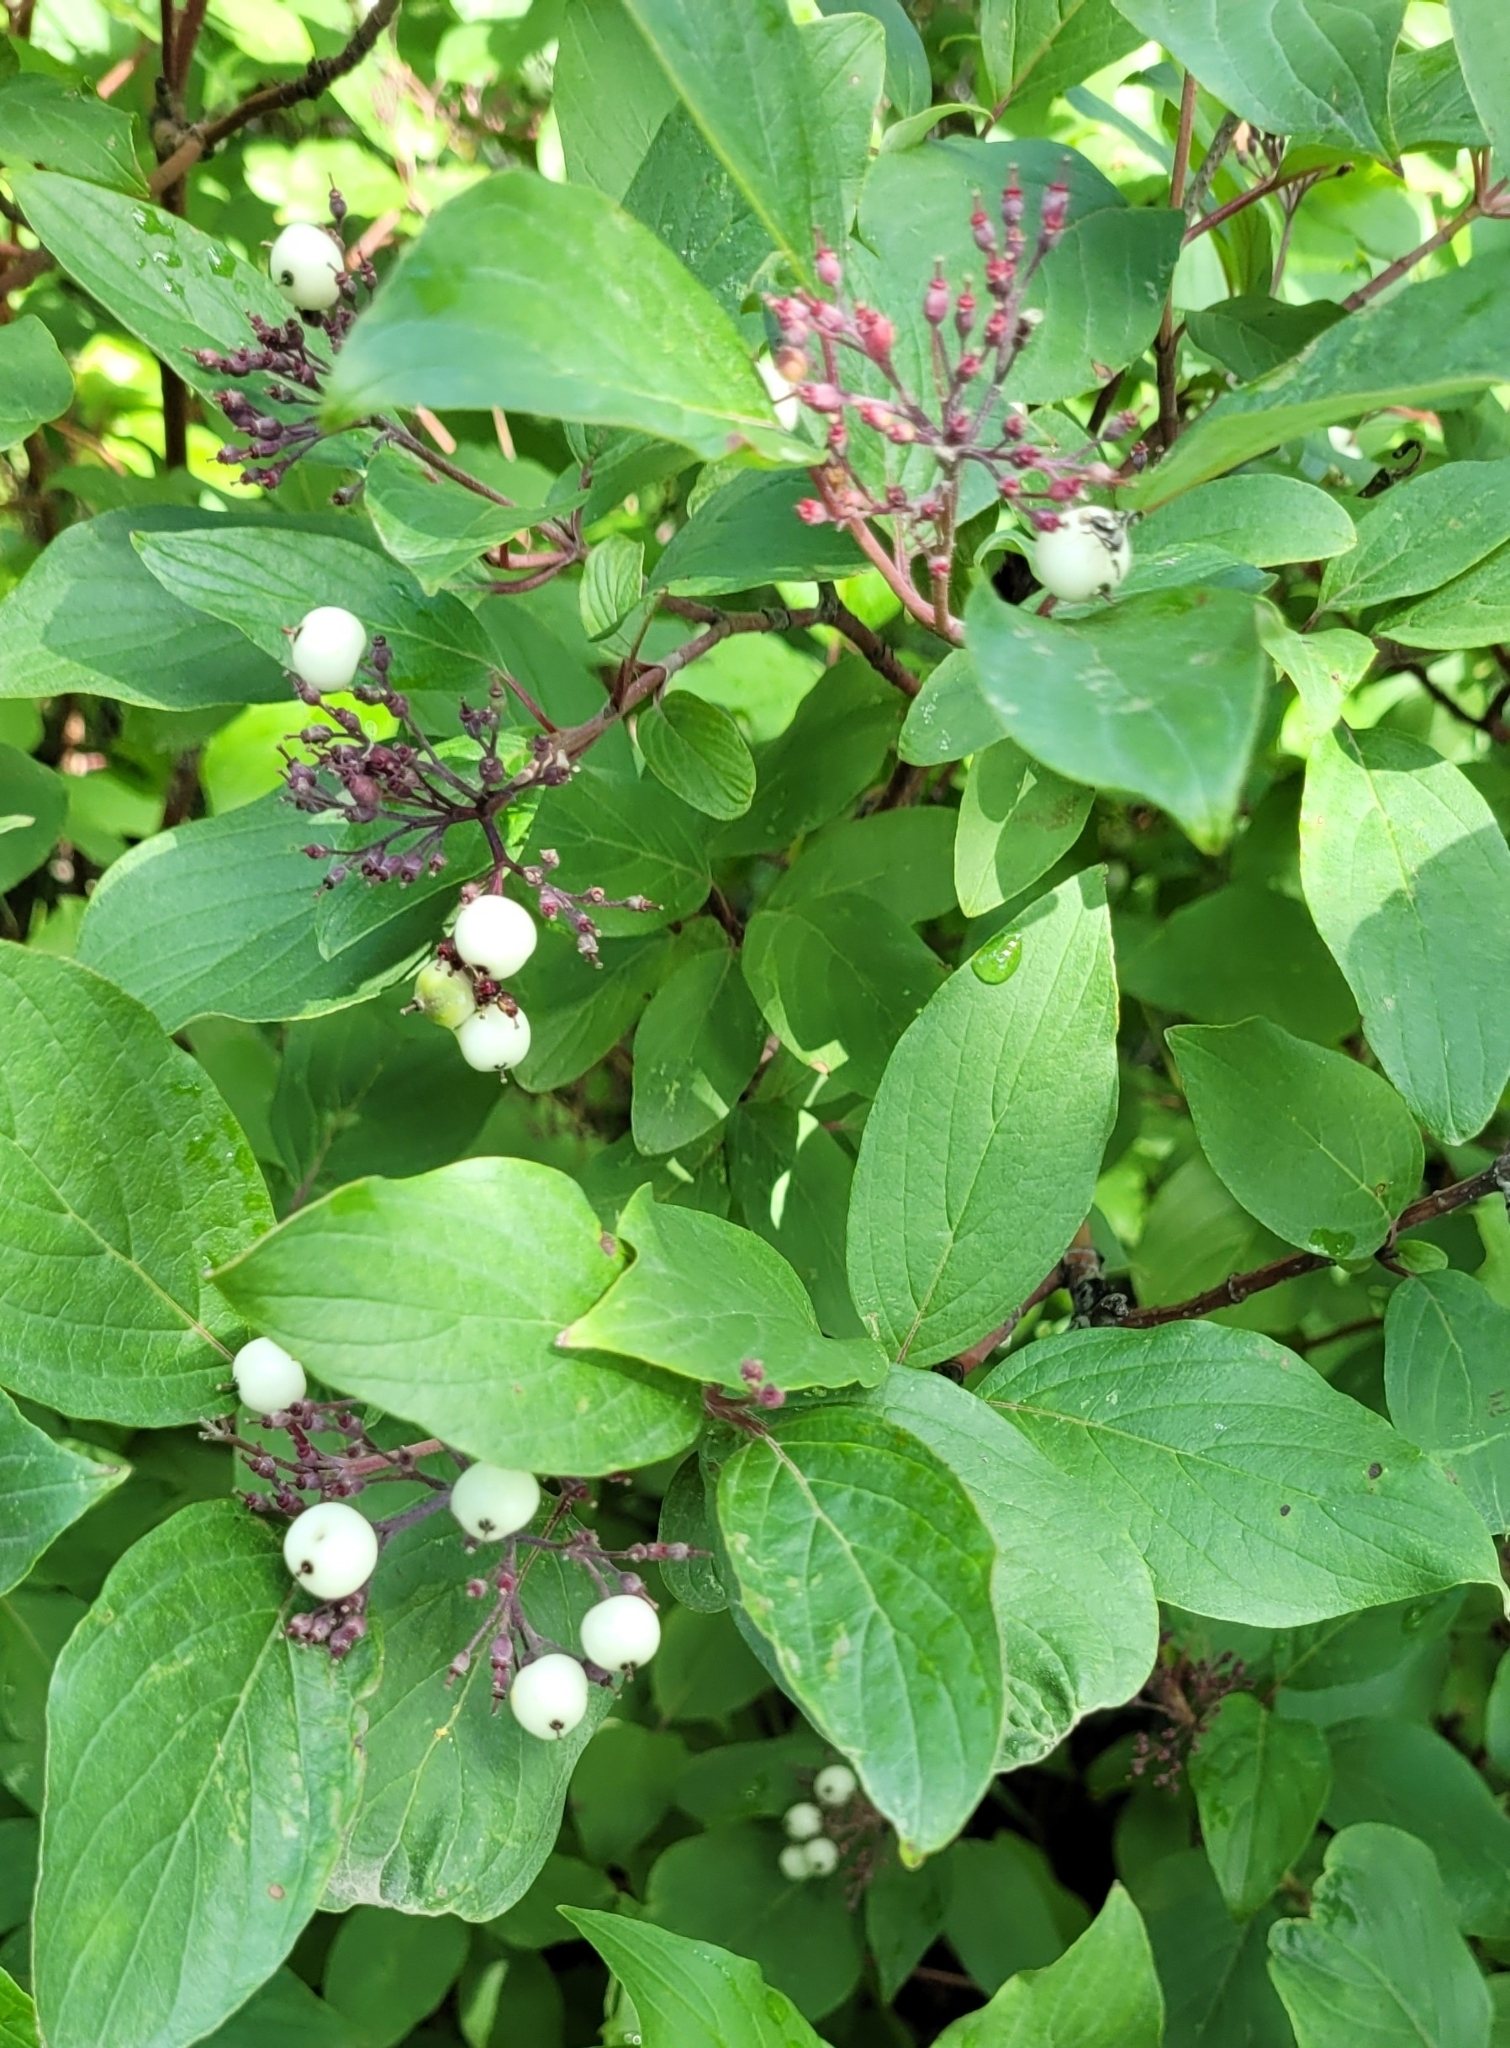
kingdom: Plantae
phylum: Tracheophyta
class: Magnoliopsida
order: Cornales
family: Cornaceae
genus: Cornus
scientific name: Cornus sericea
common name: Red-osier dogwood
